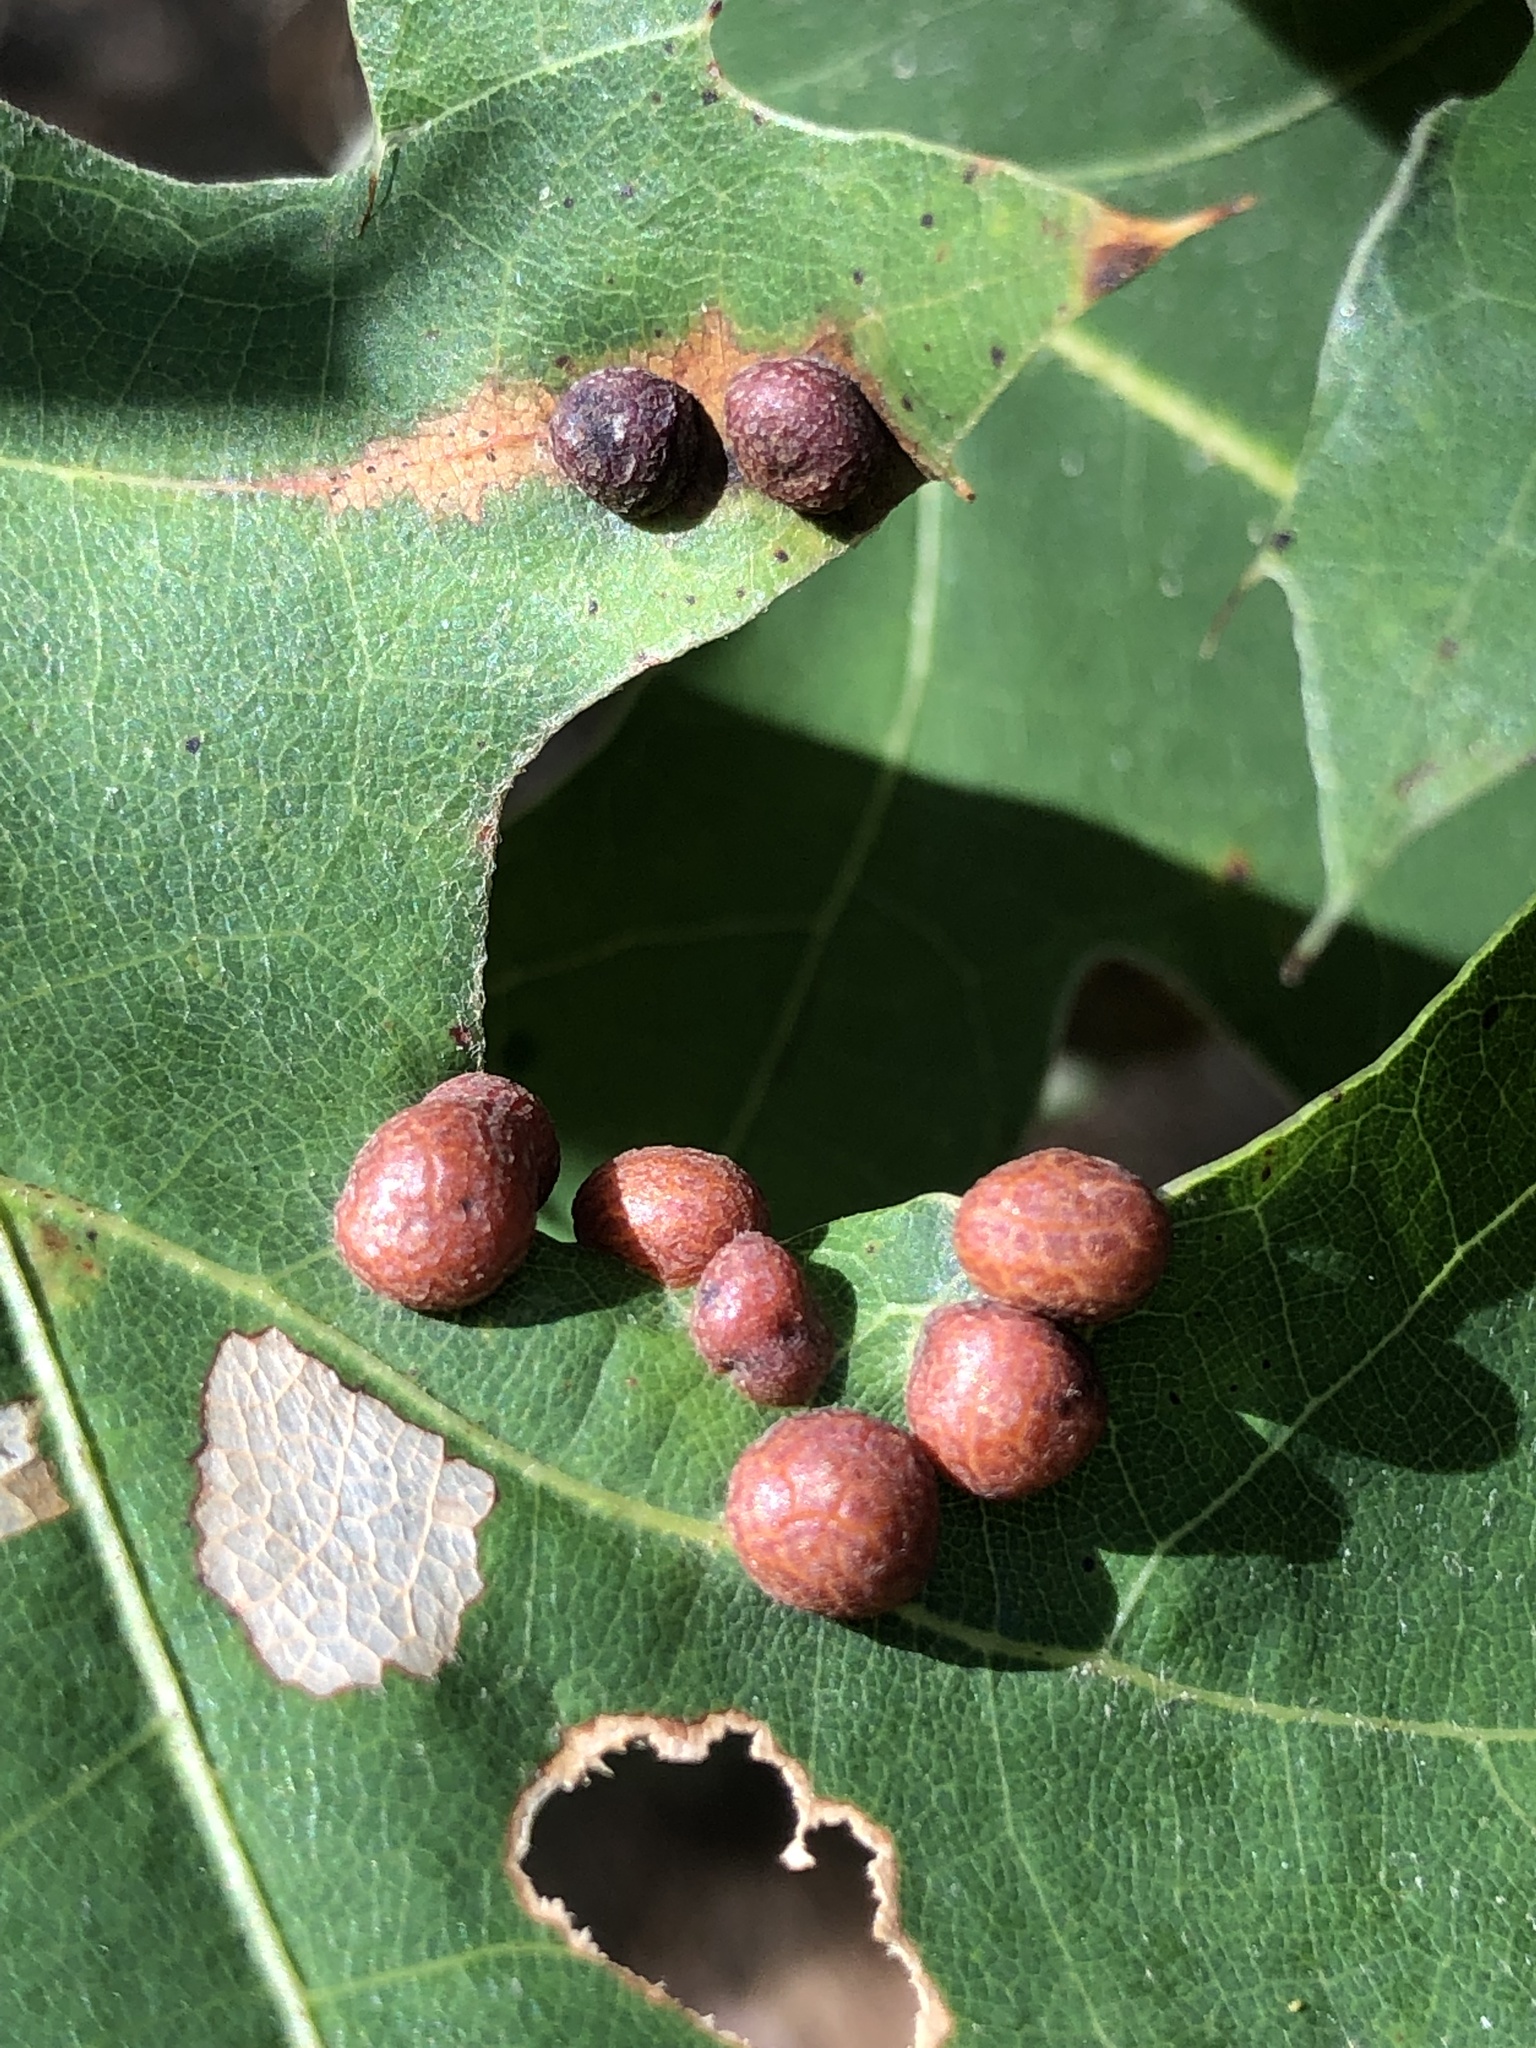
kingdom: Animalia
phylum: Arthropoda
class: Insecta
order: Diptera
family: Cecidomyiidae
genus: Polystepha
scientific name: Polystepha pilulae
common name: Oak leaf gall midge
